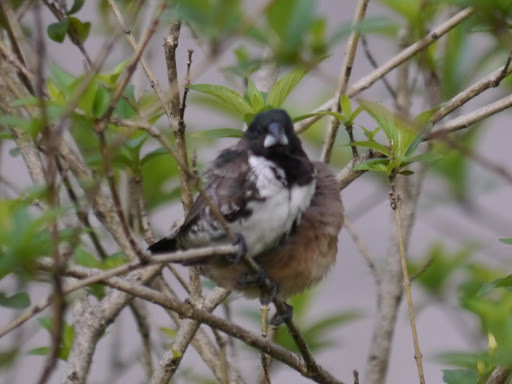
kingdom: Animalia
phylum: Chordata
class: Aves
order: Passeriformes
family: Estrildidae
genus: Lonchura
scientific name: Lonchura cucullata
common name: Bronze mannikin
